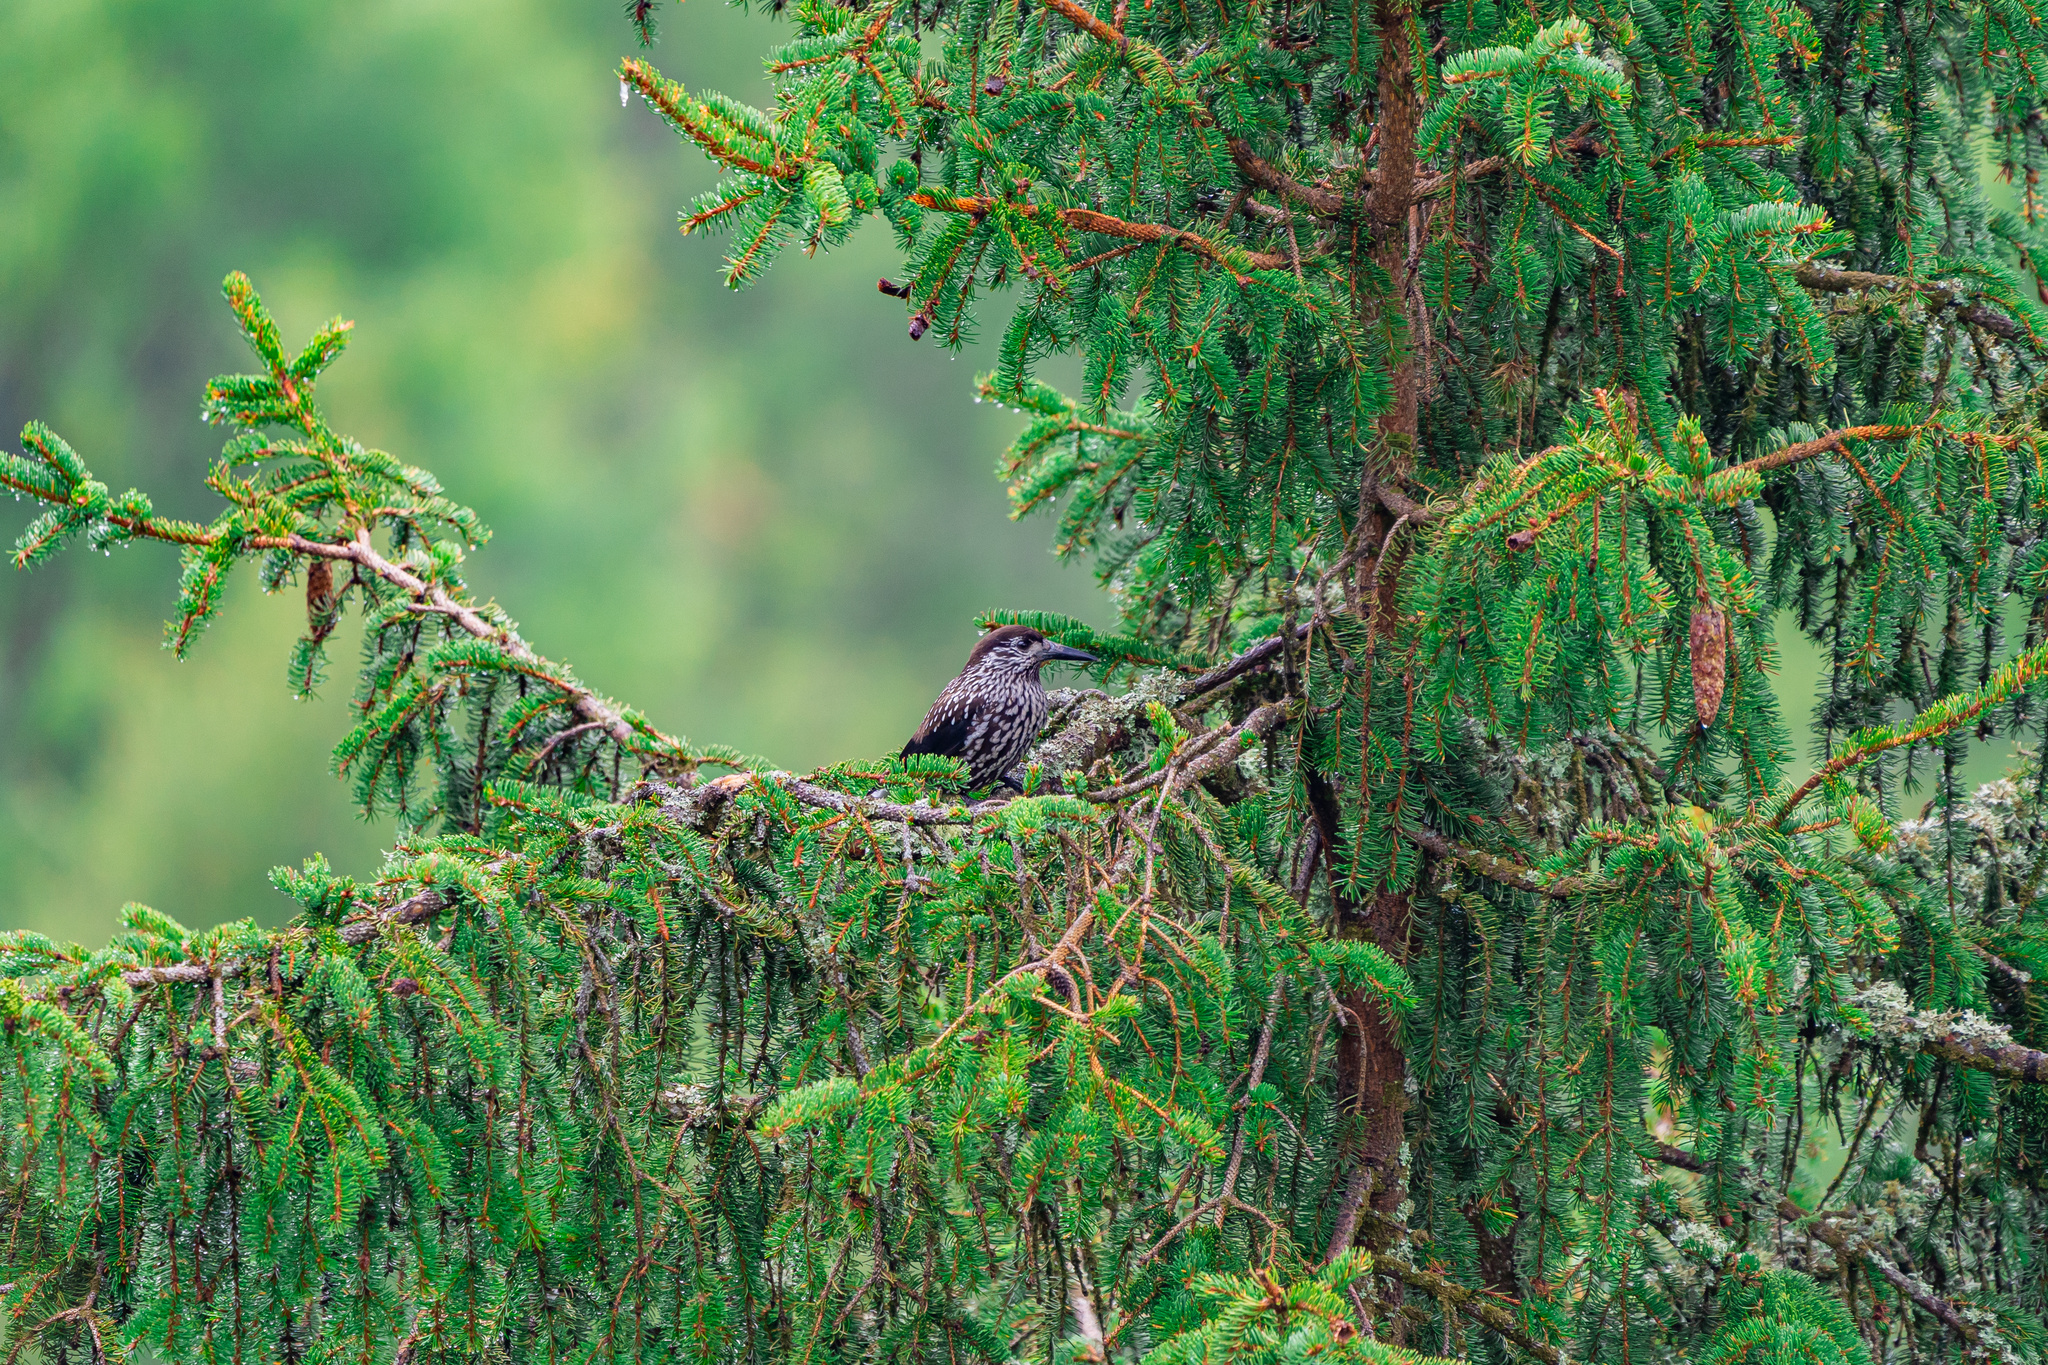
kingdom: Animalia
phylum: Chordata
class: Aves
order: Passeriformes
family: Corvidae
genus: Nucifraga
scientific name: Nucifraga caryocatactes
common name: Spotted nutcracker
